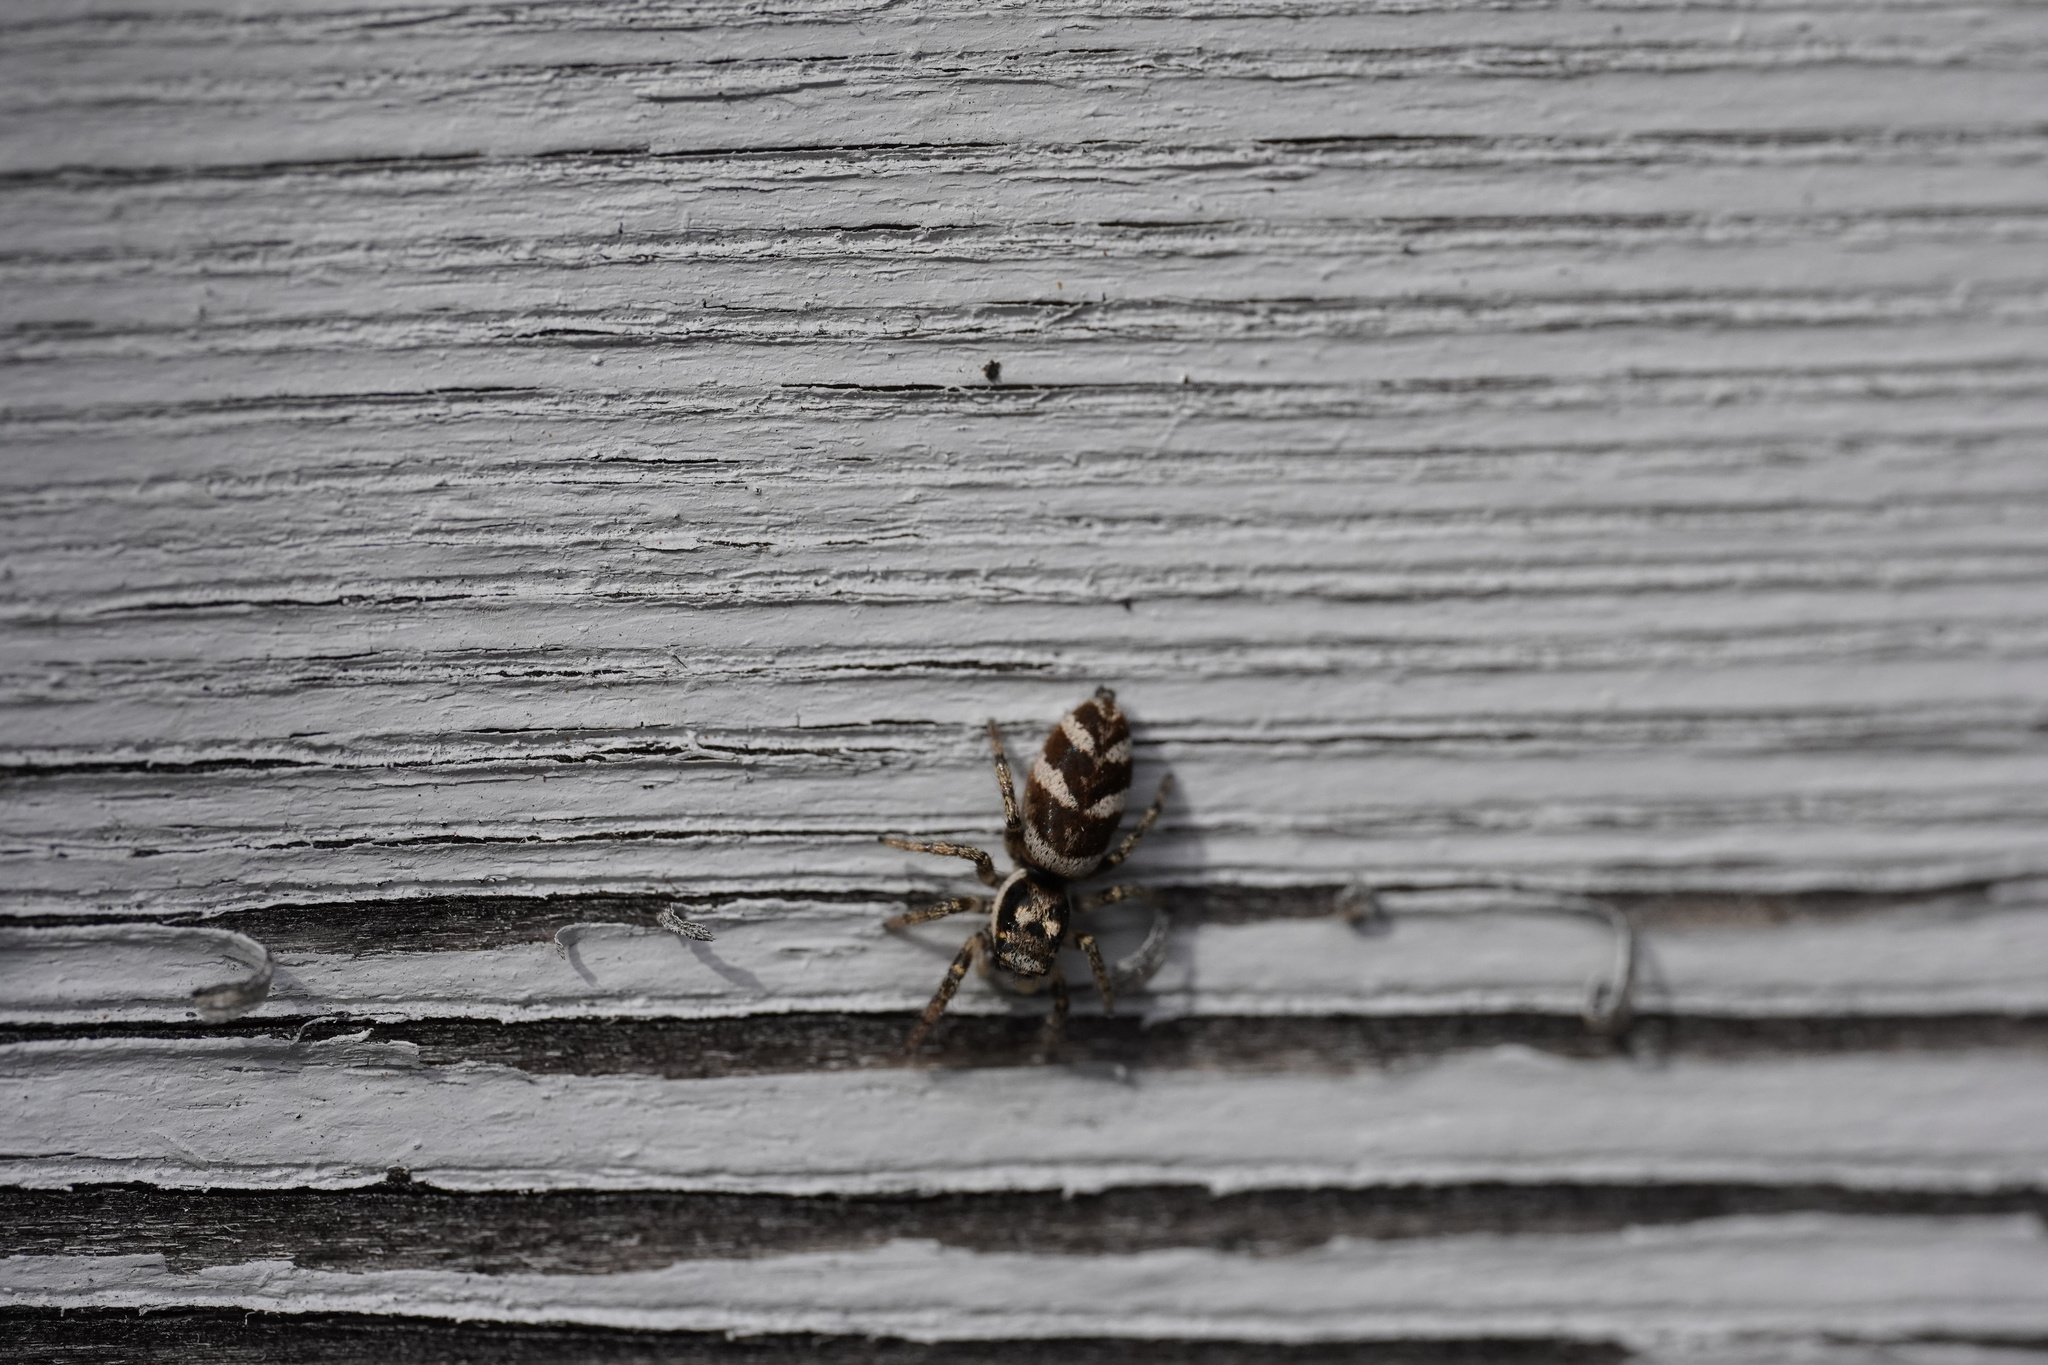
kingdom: Animalia
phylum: Arthropoda
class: Arachnida
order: Araneae
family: Salticidae
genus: Salticus
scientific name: Salticus scenicus
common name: Zebra jumper
